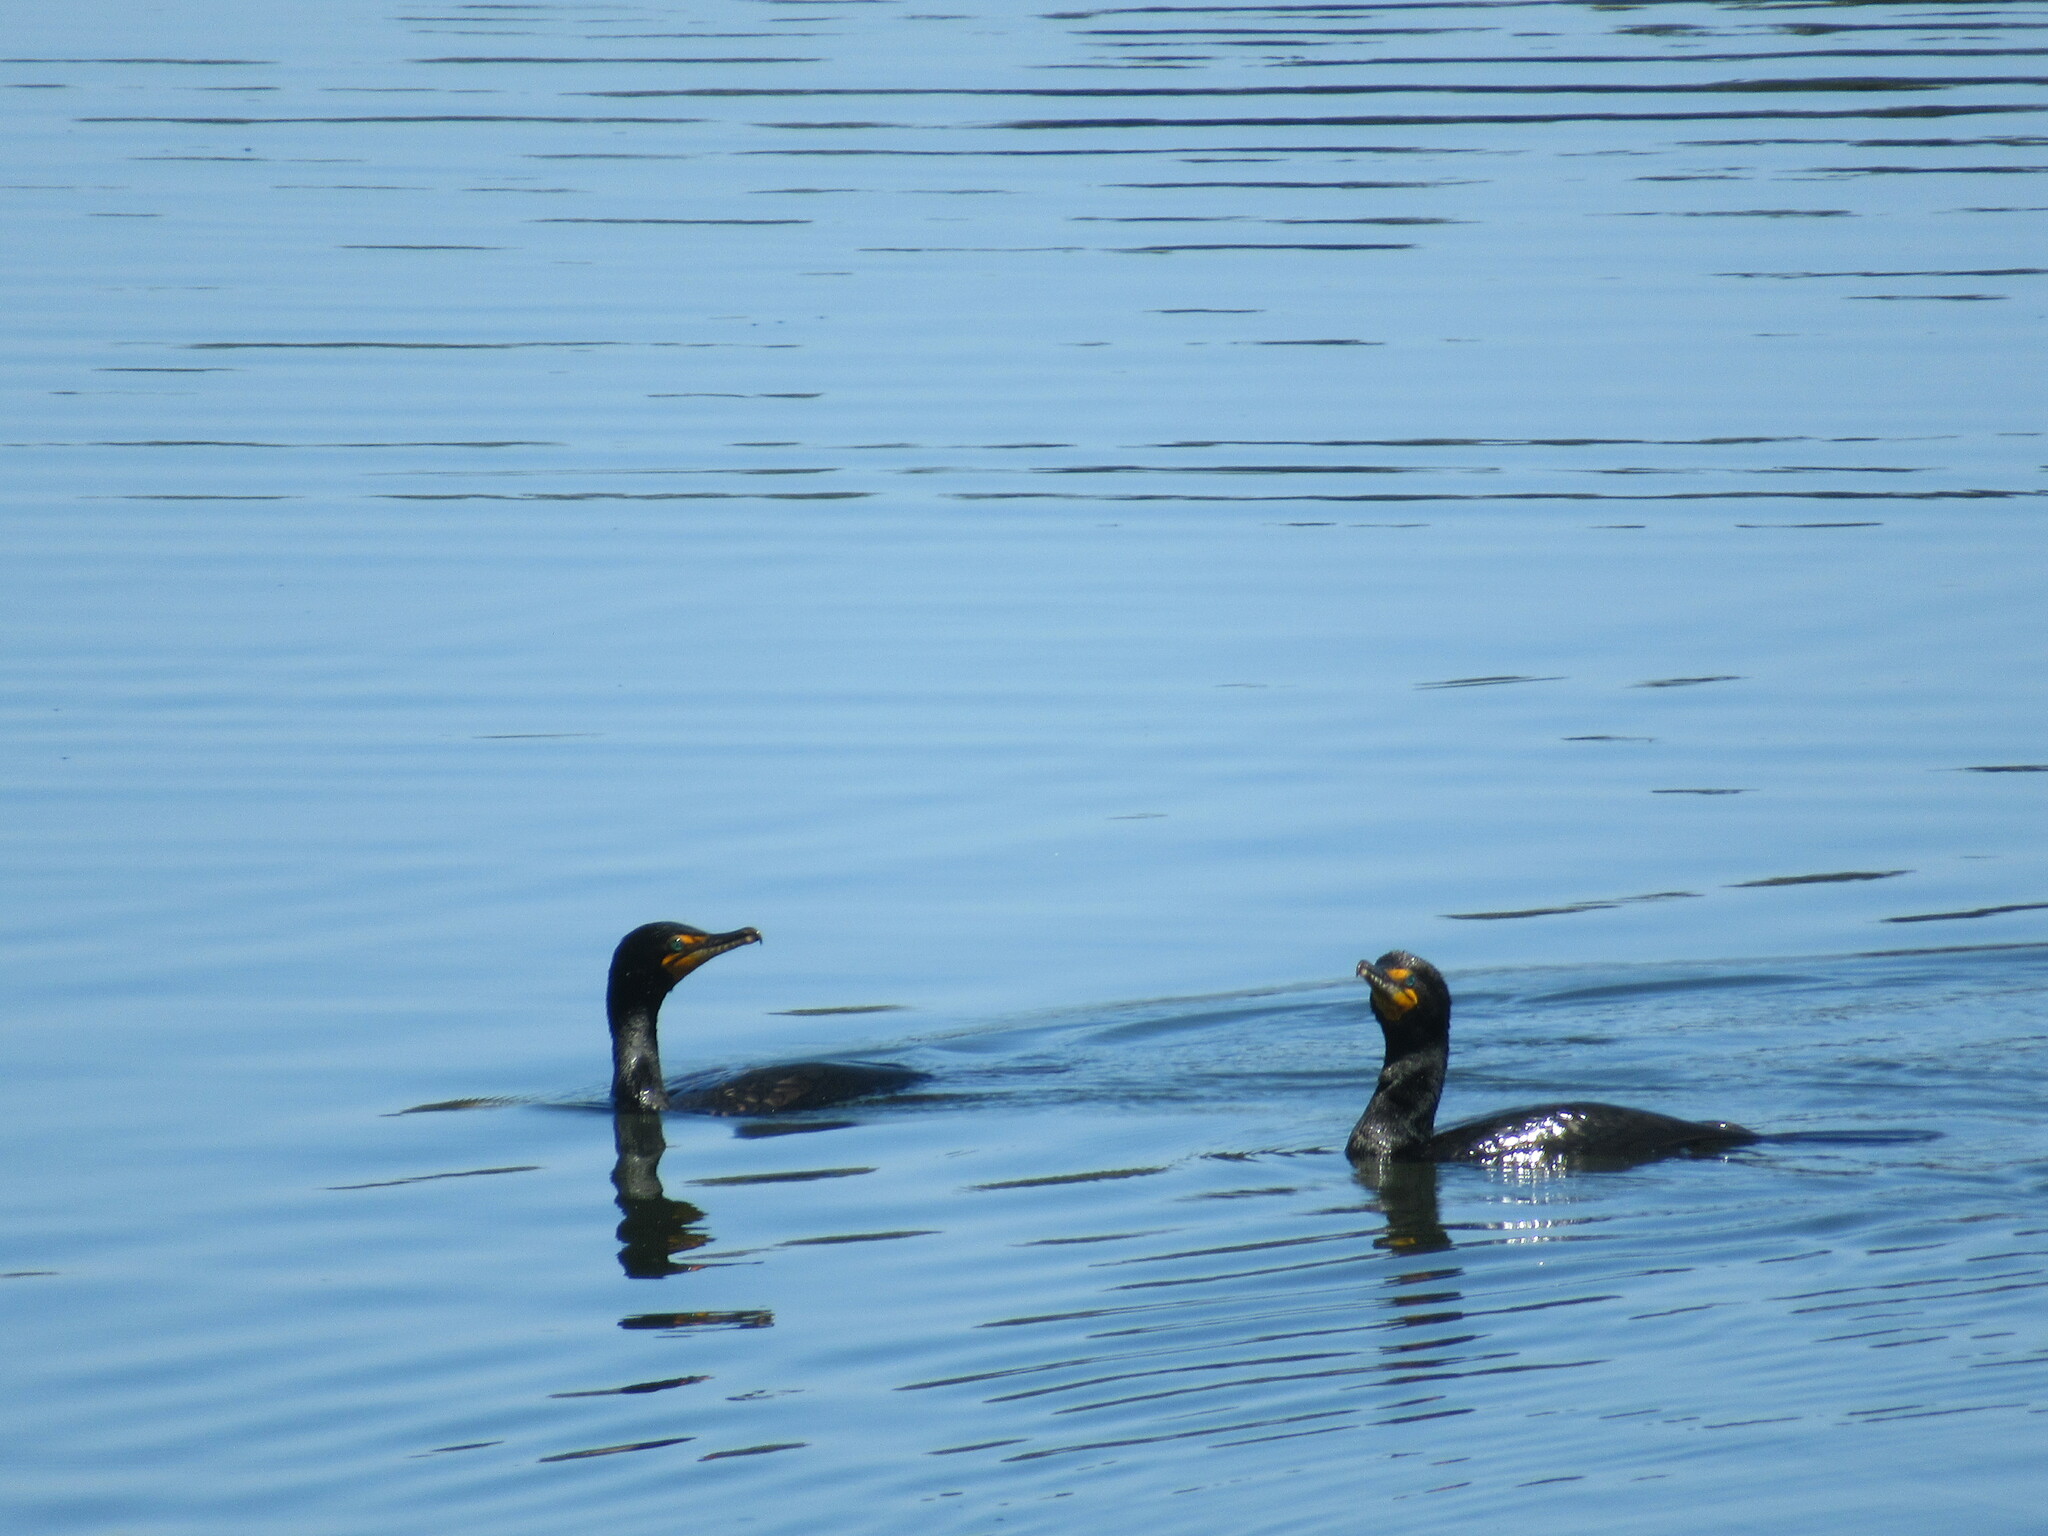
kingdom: Animalia
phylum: Chordata
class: Aves
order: Suliformes
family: Phalacrocoracidae
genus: Phalacrocorax
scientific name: Phalacrocorax auritus
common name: Double-crested cormorant
